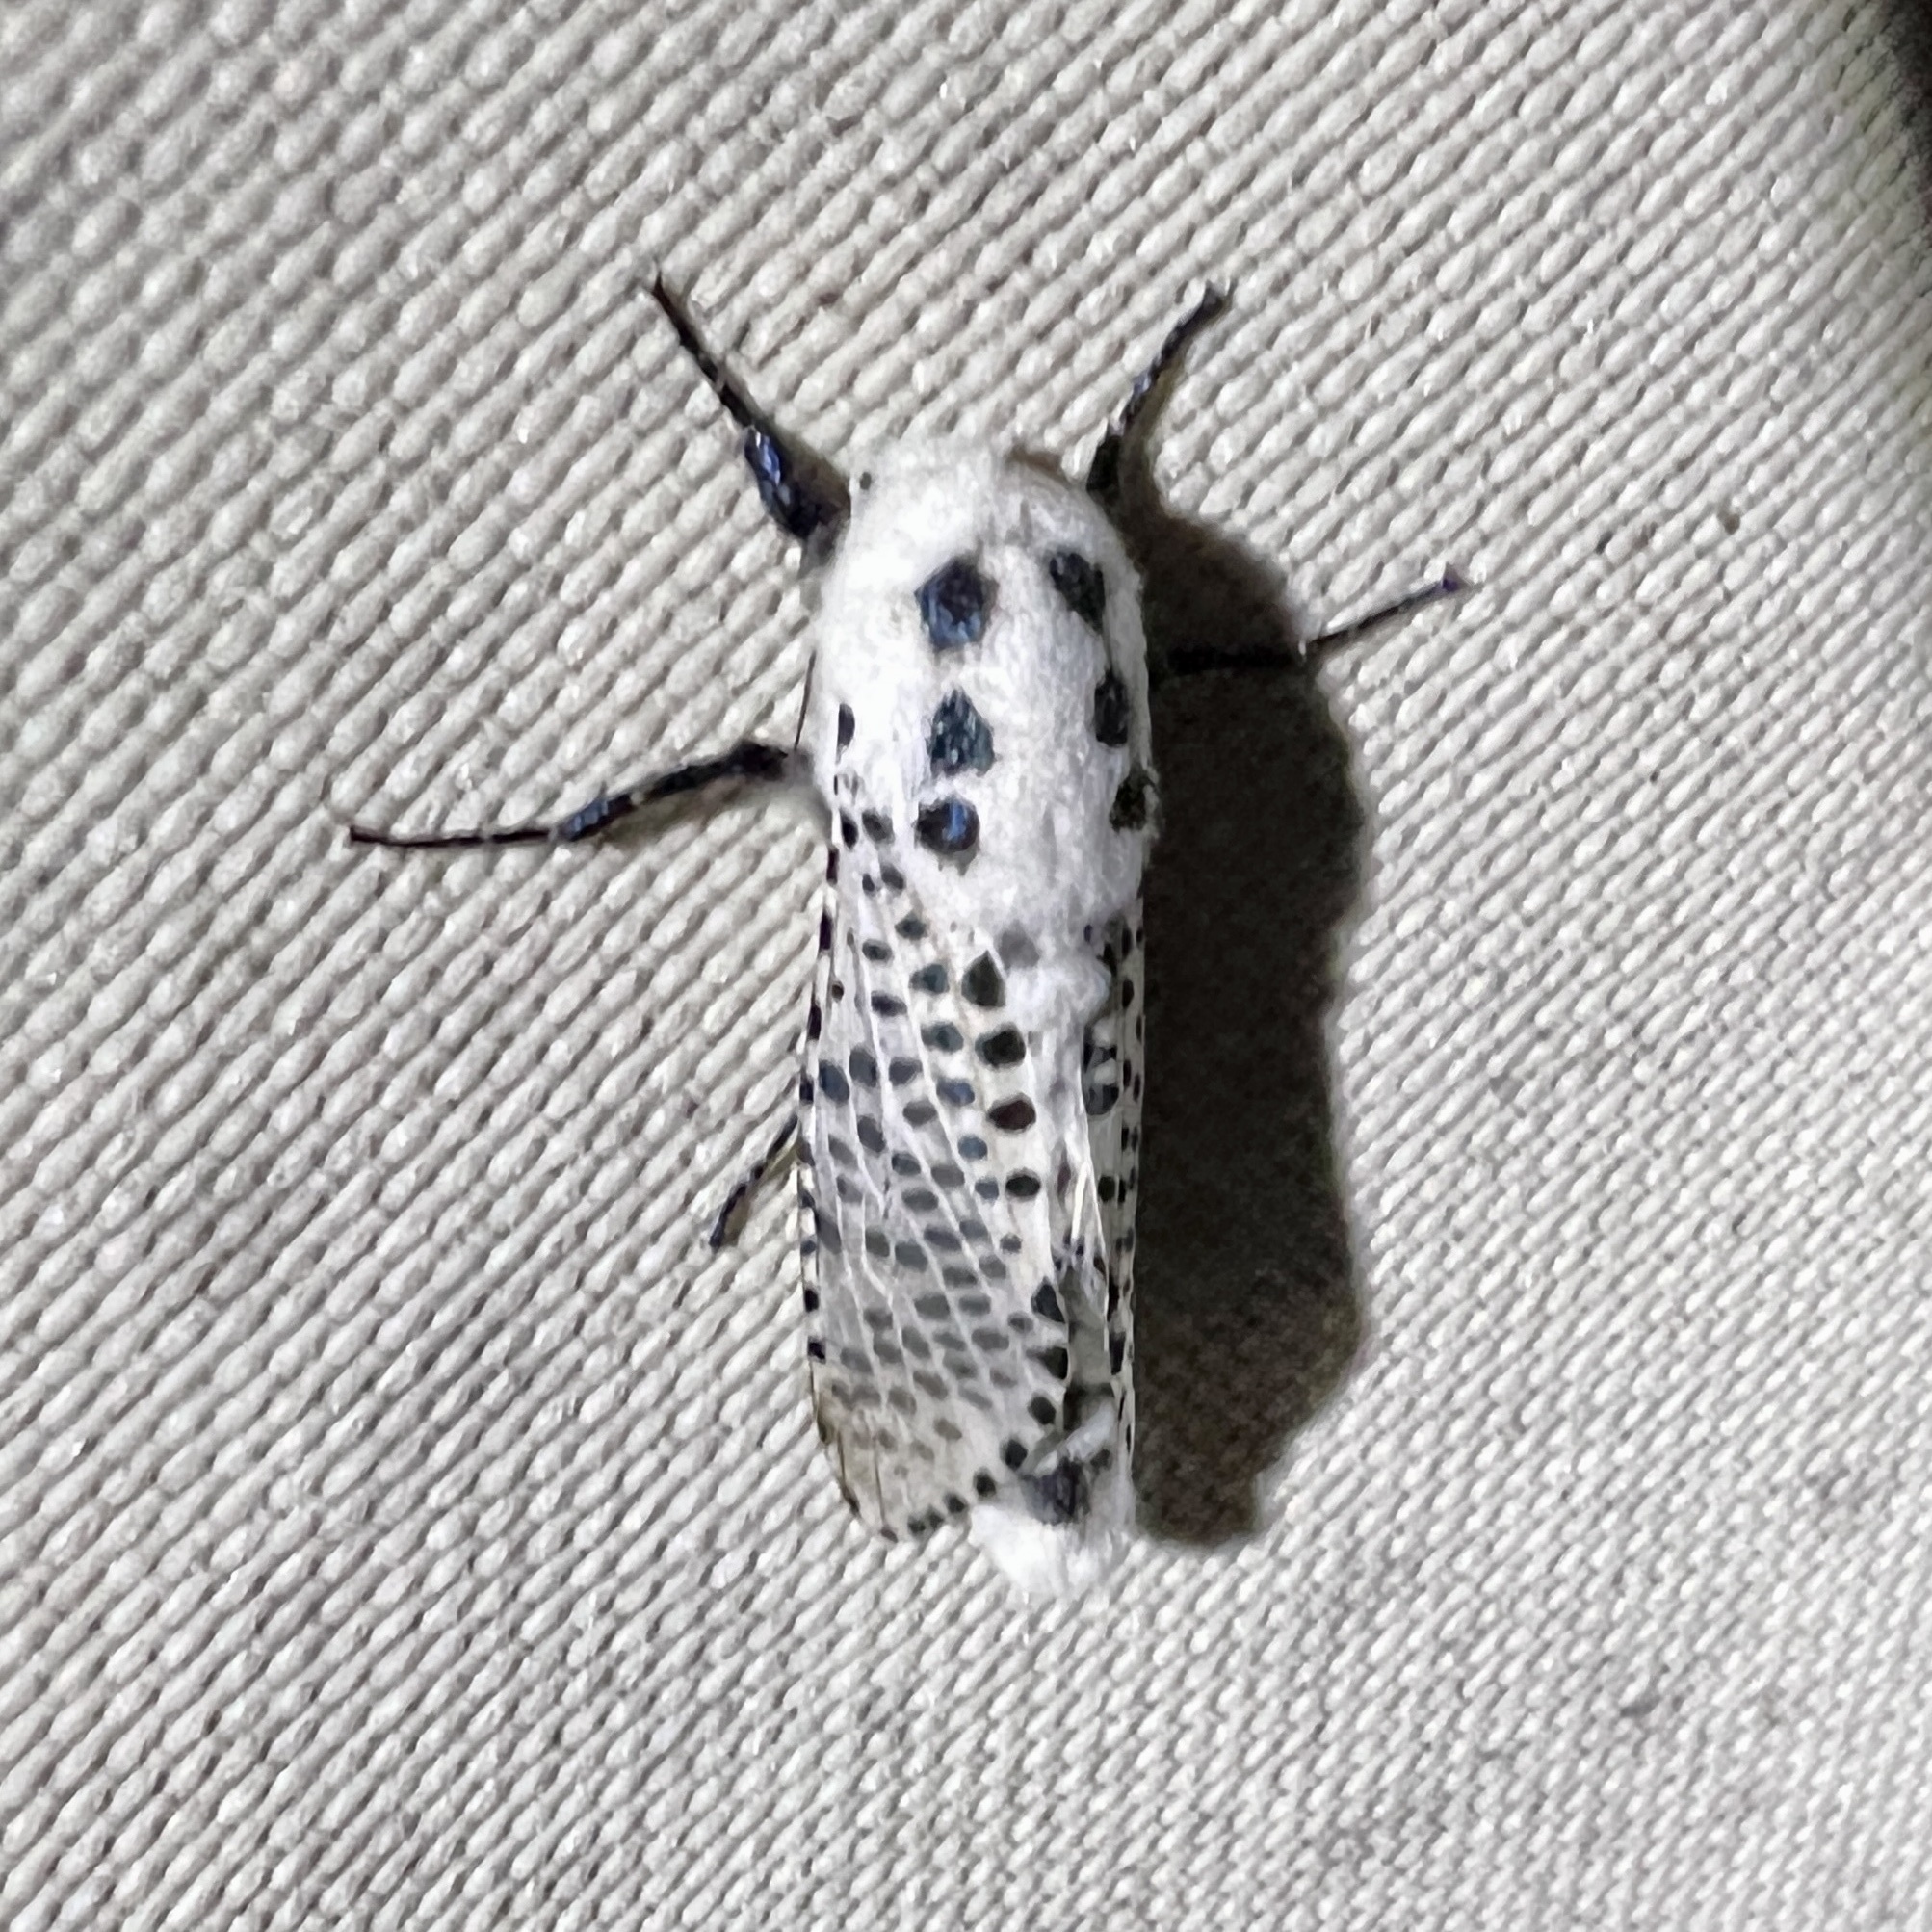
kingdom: Animalia
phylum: Arthropoda
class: Insecta
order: Lepidoptera
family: Cossidae
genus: Zeuzera
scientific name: Zeuzera pyrina
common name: Leopard moth
